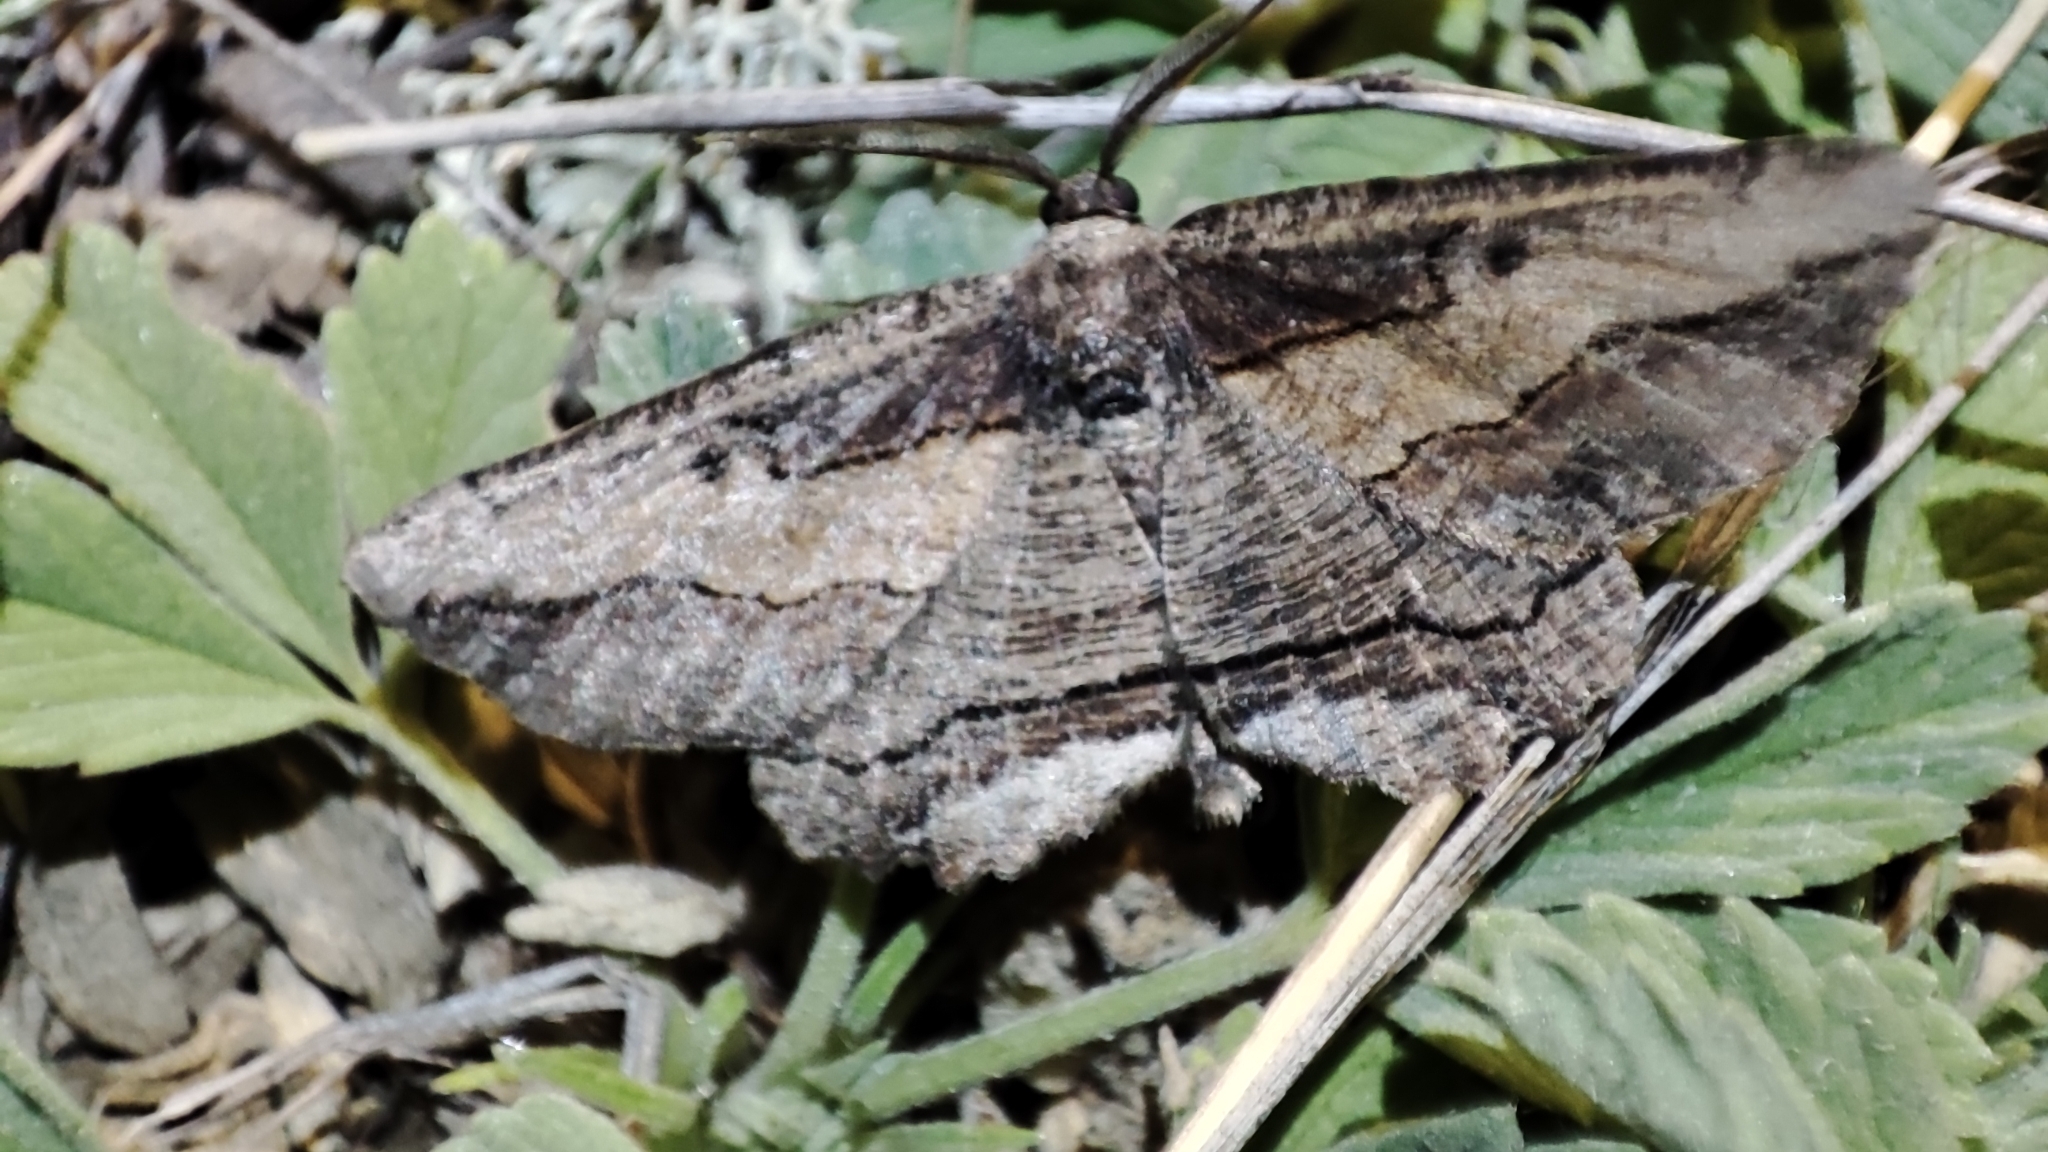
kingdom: Animalia
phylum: Arthropoda
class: Insecta
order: Lepidoptera
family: Geometridae
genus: Phthonandria
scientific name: Phthonandria emaria
